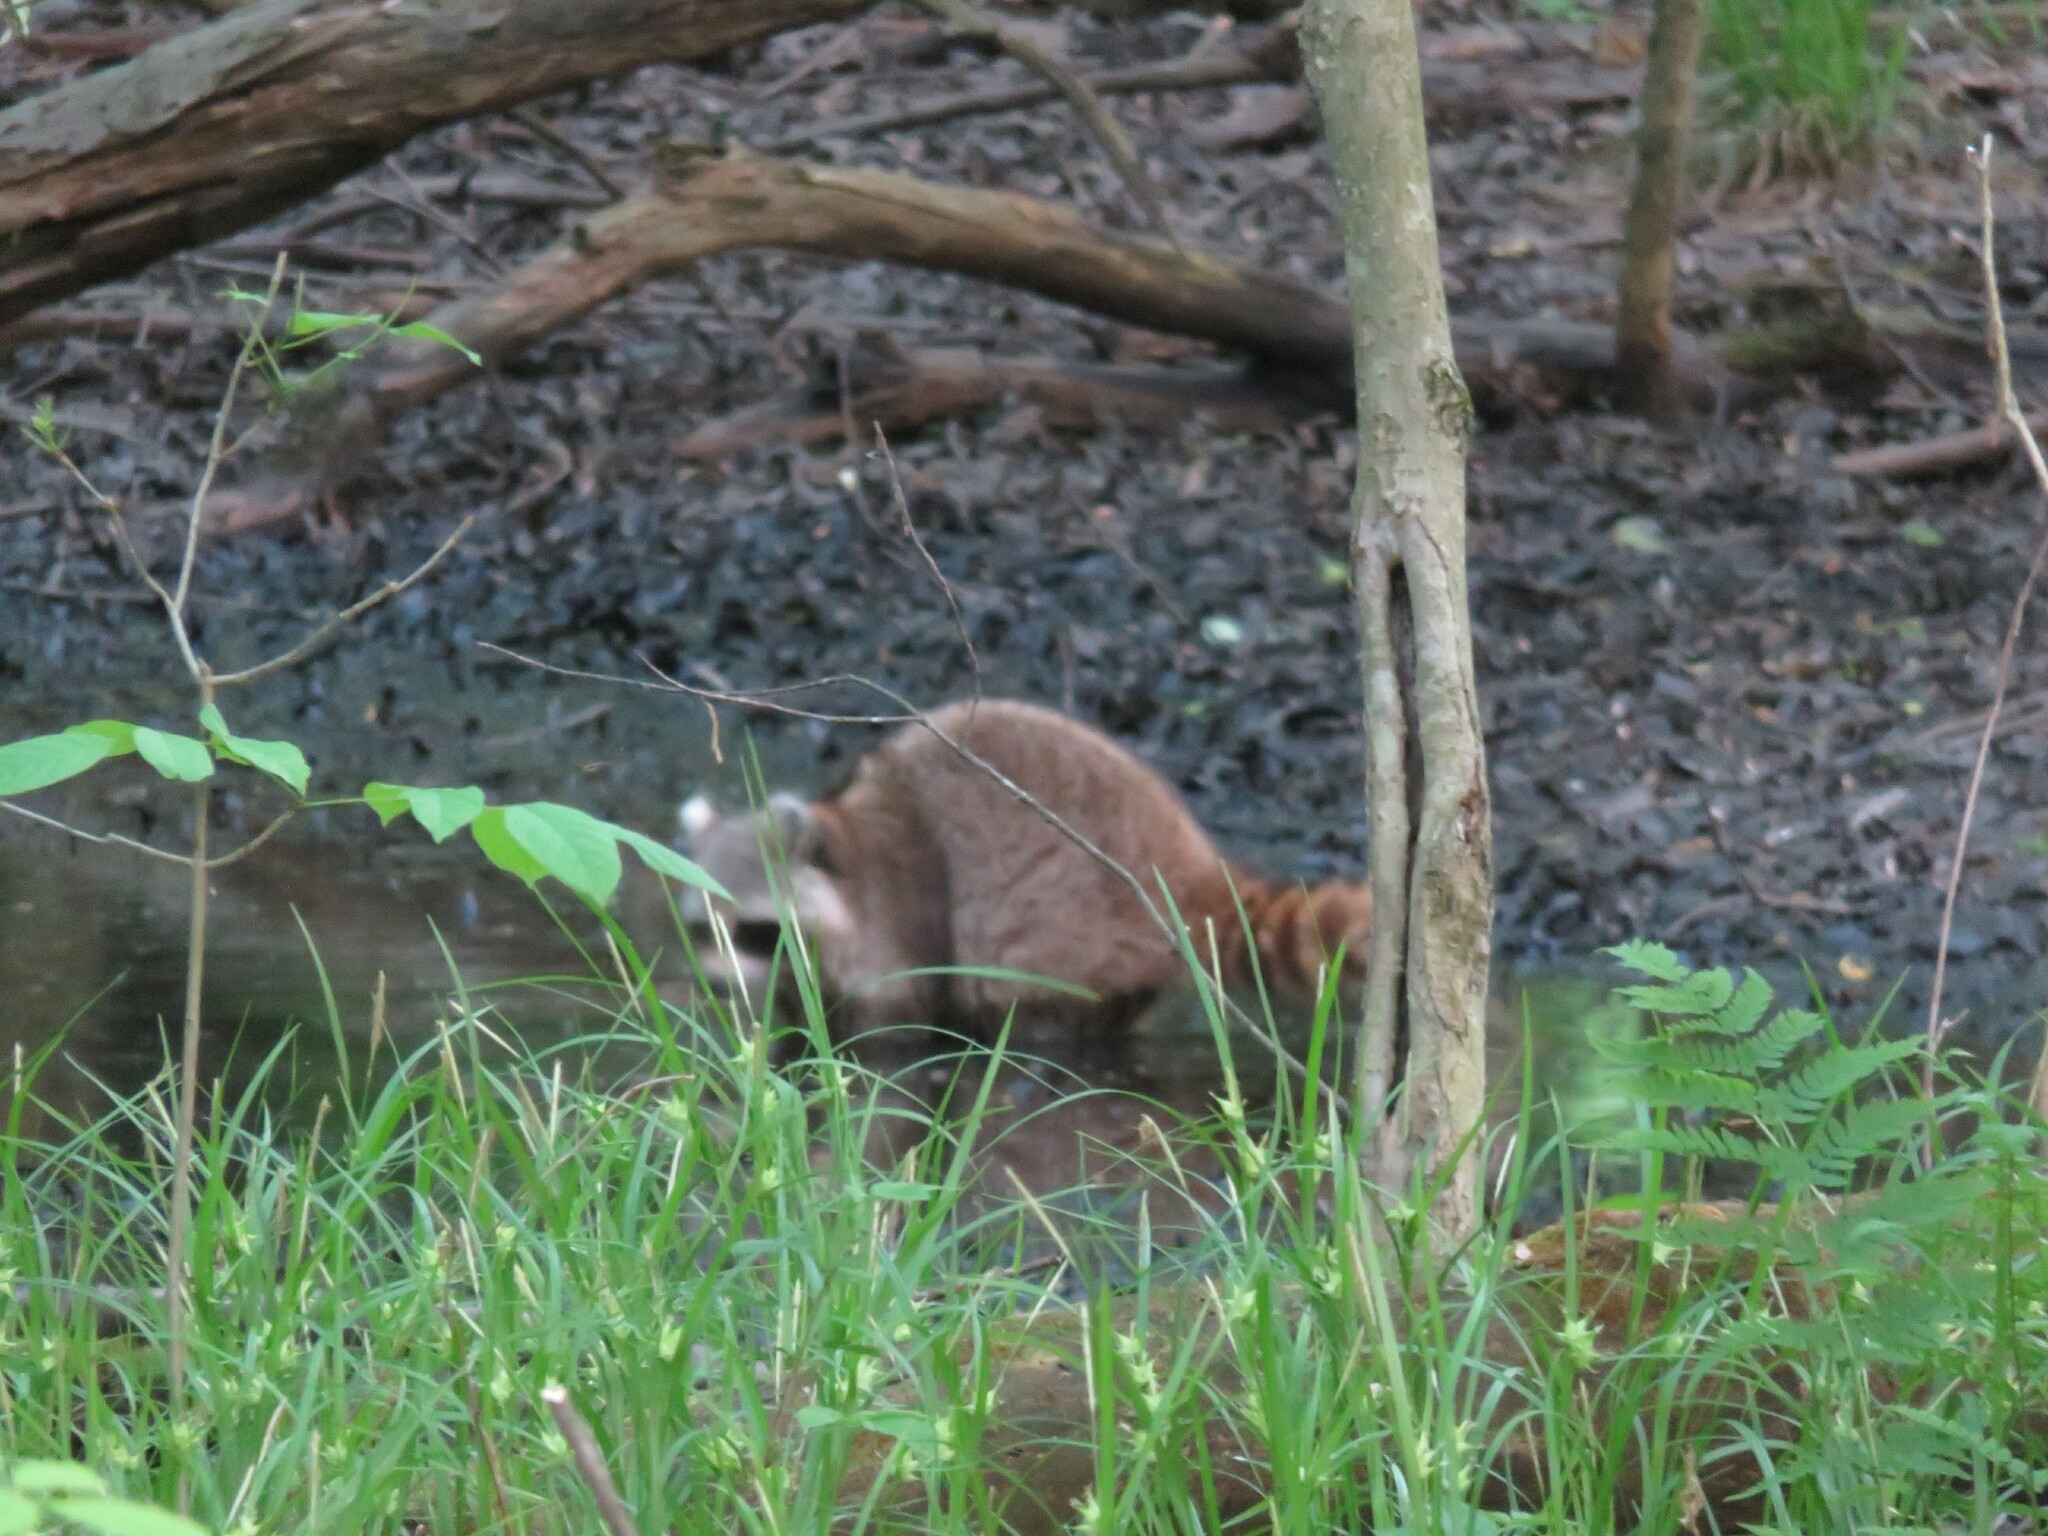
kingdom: Animalia
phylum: Chordata
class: Mammalia
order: Carnivora
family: Procyonidae
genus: Procyon
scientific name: Procyon lotor
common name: Raccoon
